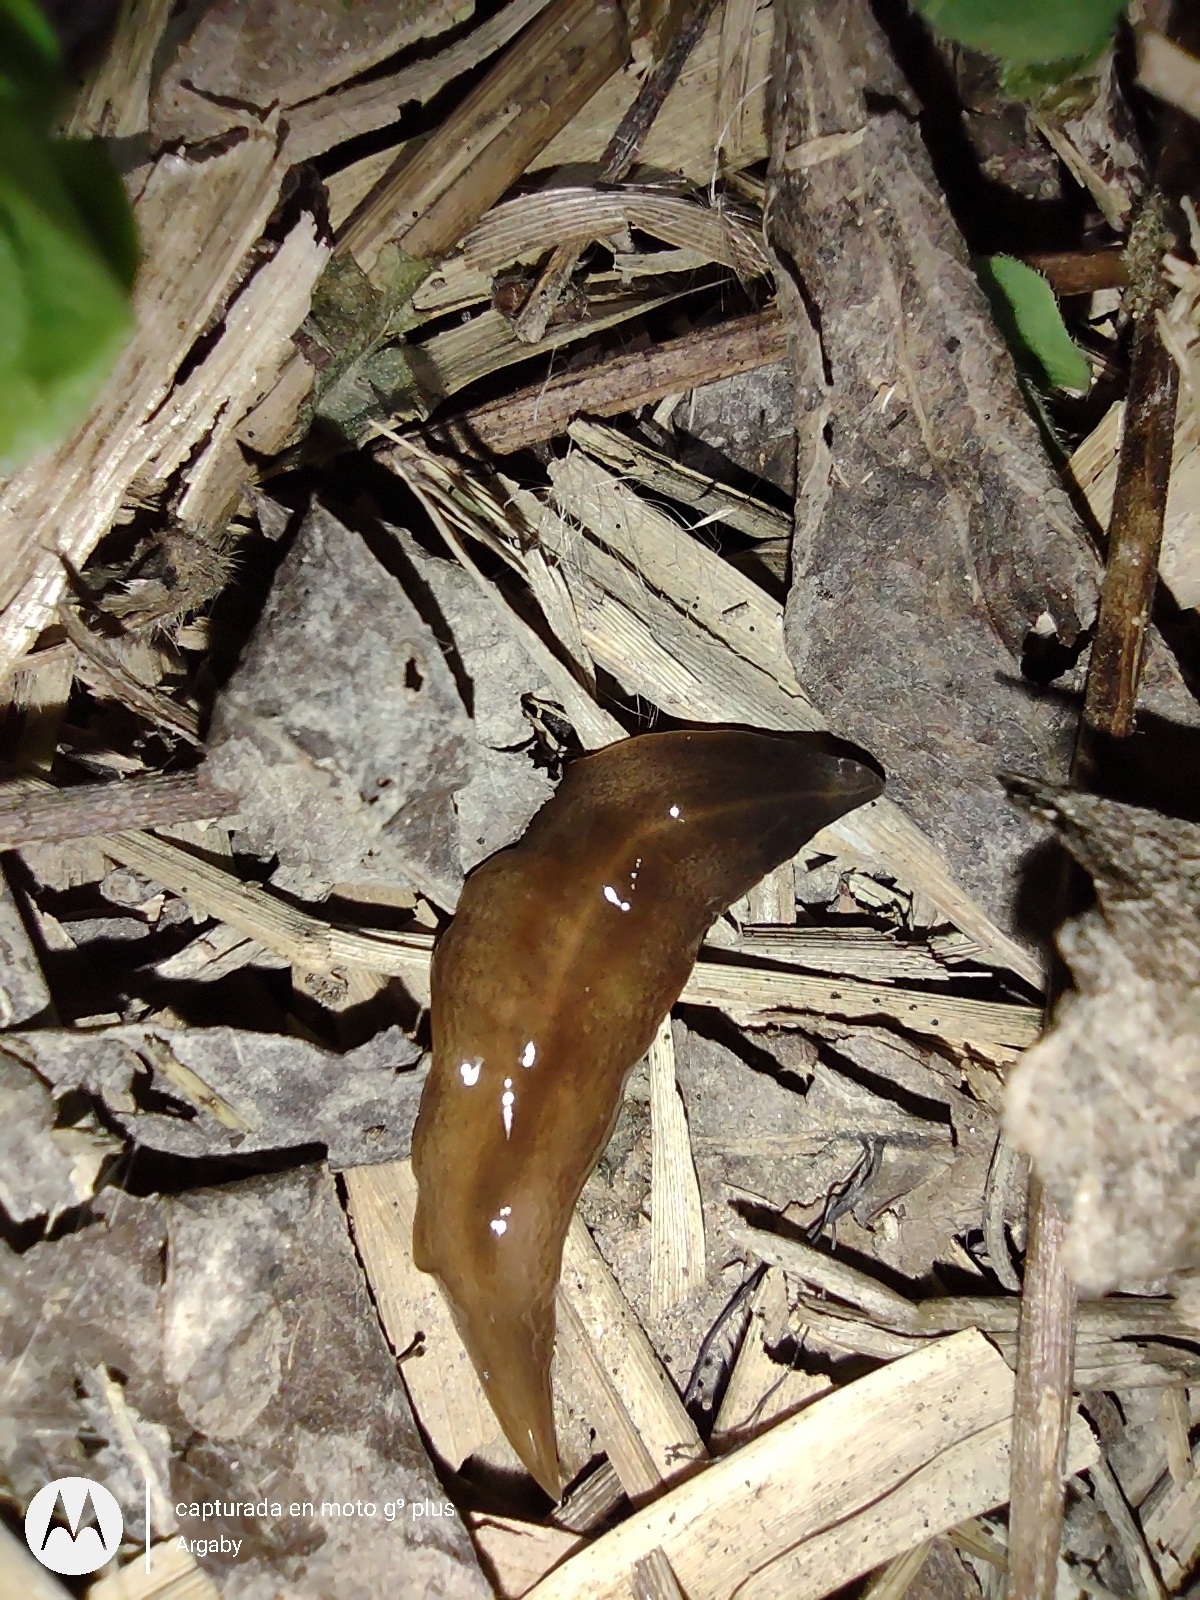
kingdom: Animalia
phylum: Platyhelminthes
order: Tricladida
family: Geoplanidae
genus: Obama
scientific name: Obama nungara
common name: Obama flatworm
